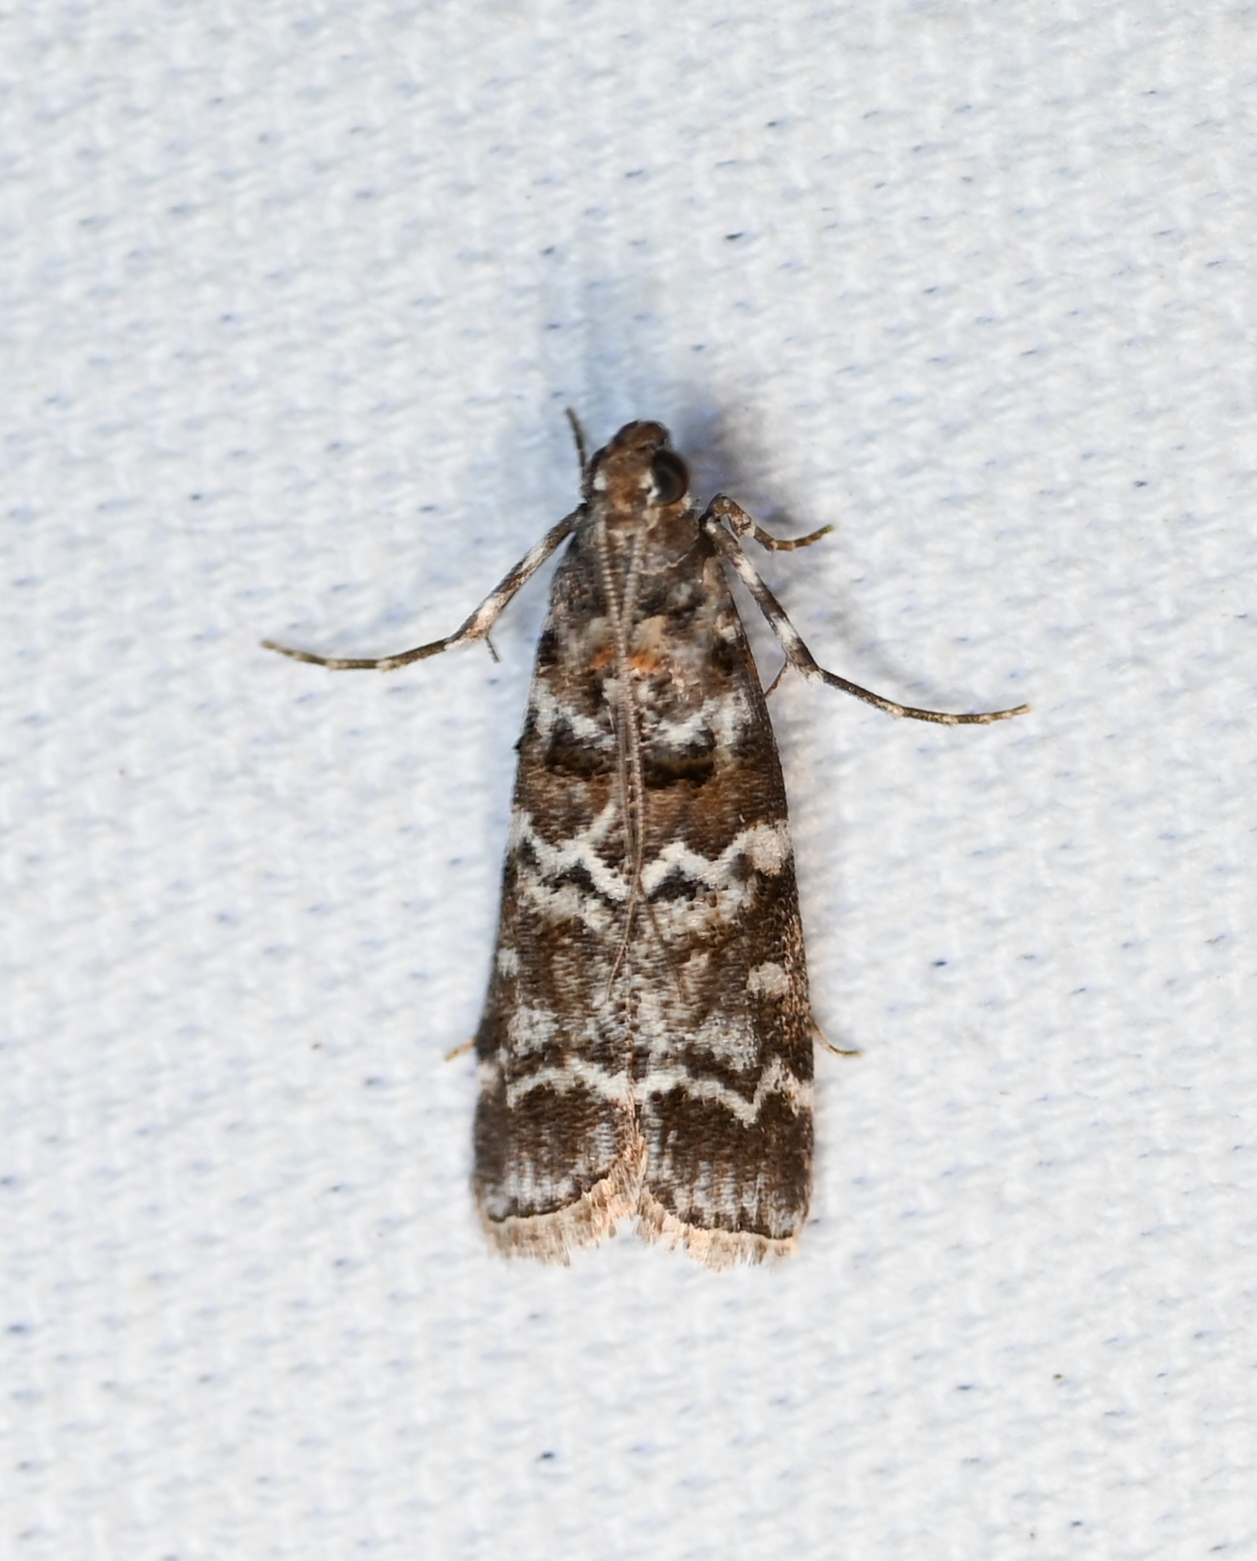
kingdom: Animalia
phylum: Arthropoda
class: Insecta
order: Lepidoptera
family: Pyralidae
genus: Dioryctria
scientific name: Dioryctria amatella
